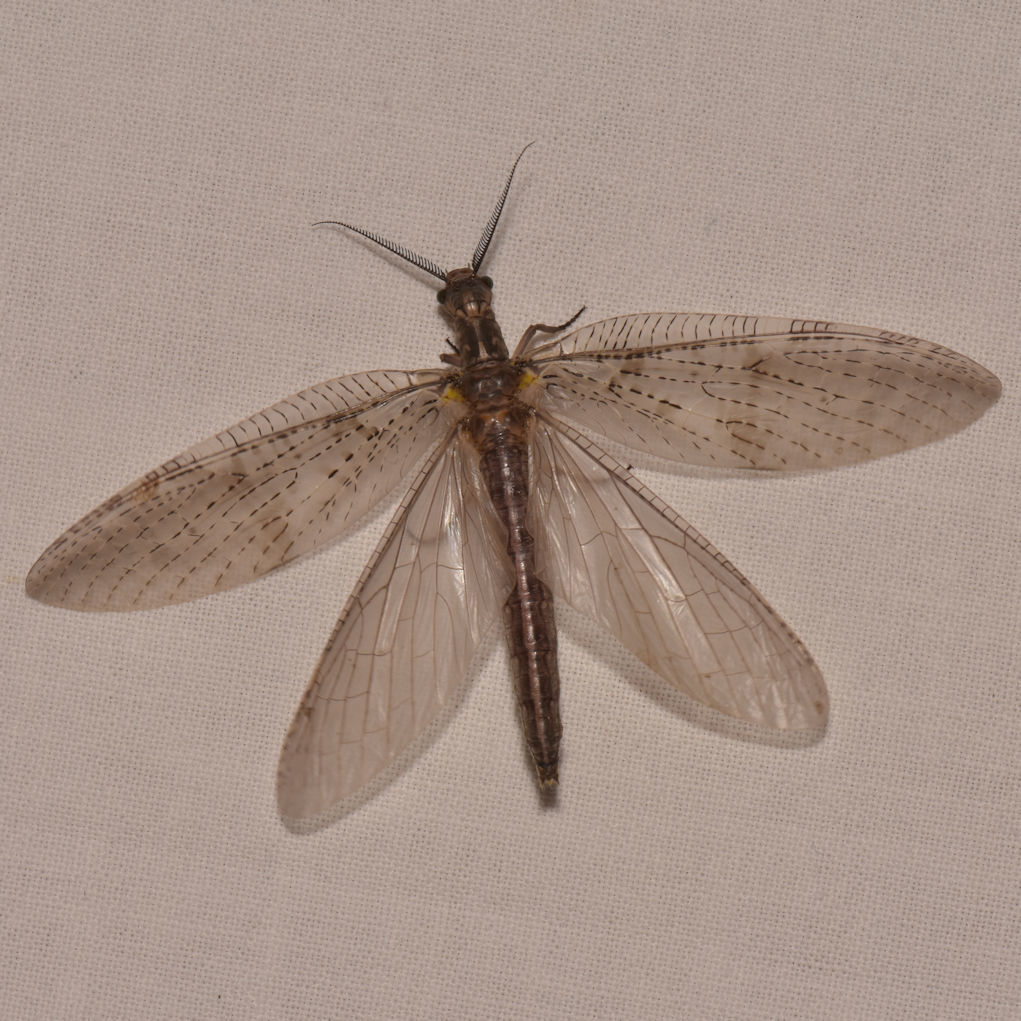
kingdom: Animalia
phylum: Arthropoda
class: Insecta
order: Megaloptera
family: Corydalidae
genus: Chauliodes
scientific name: Chauliodes pectinicornis
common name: Summer fishfly
